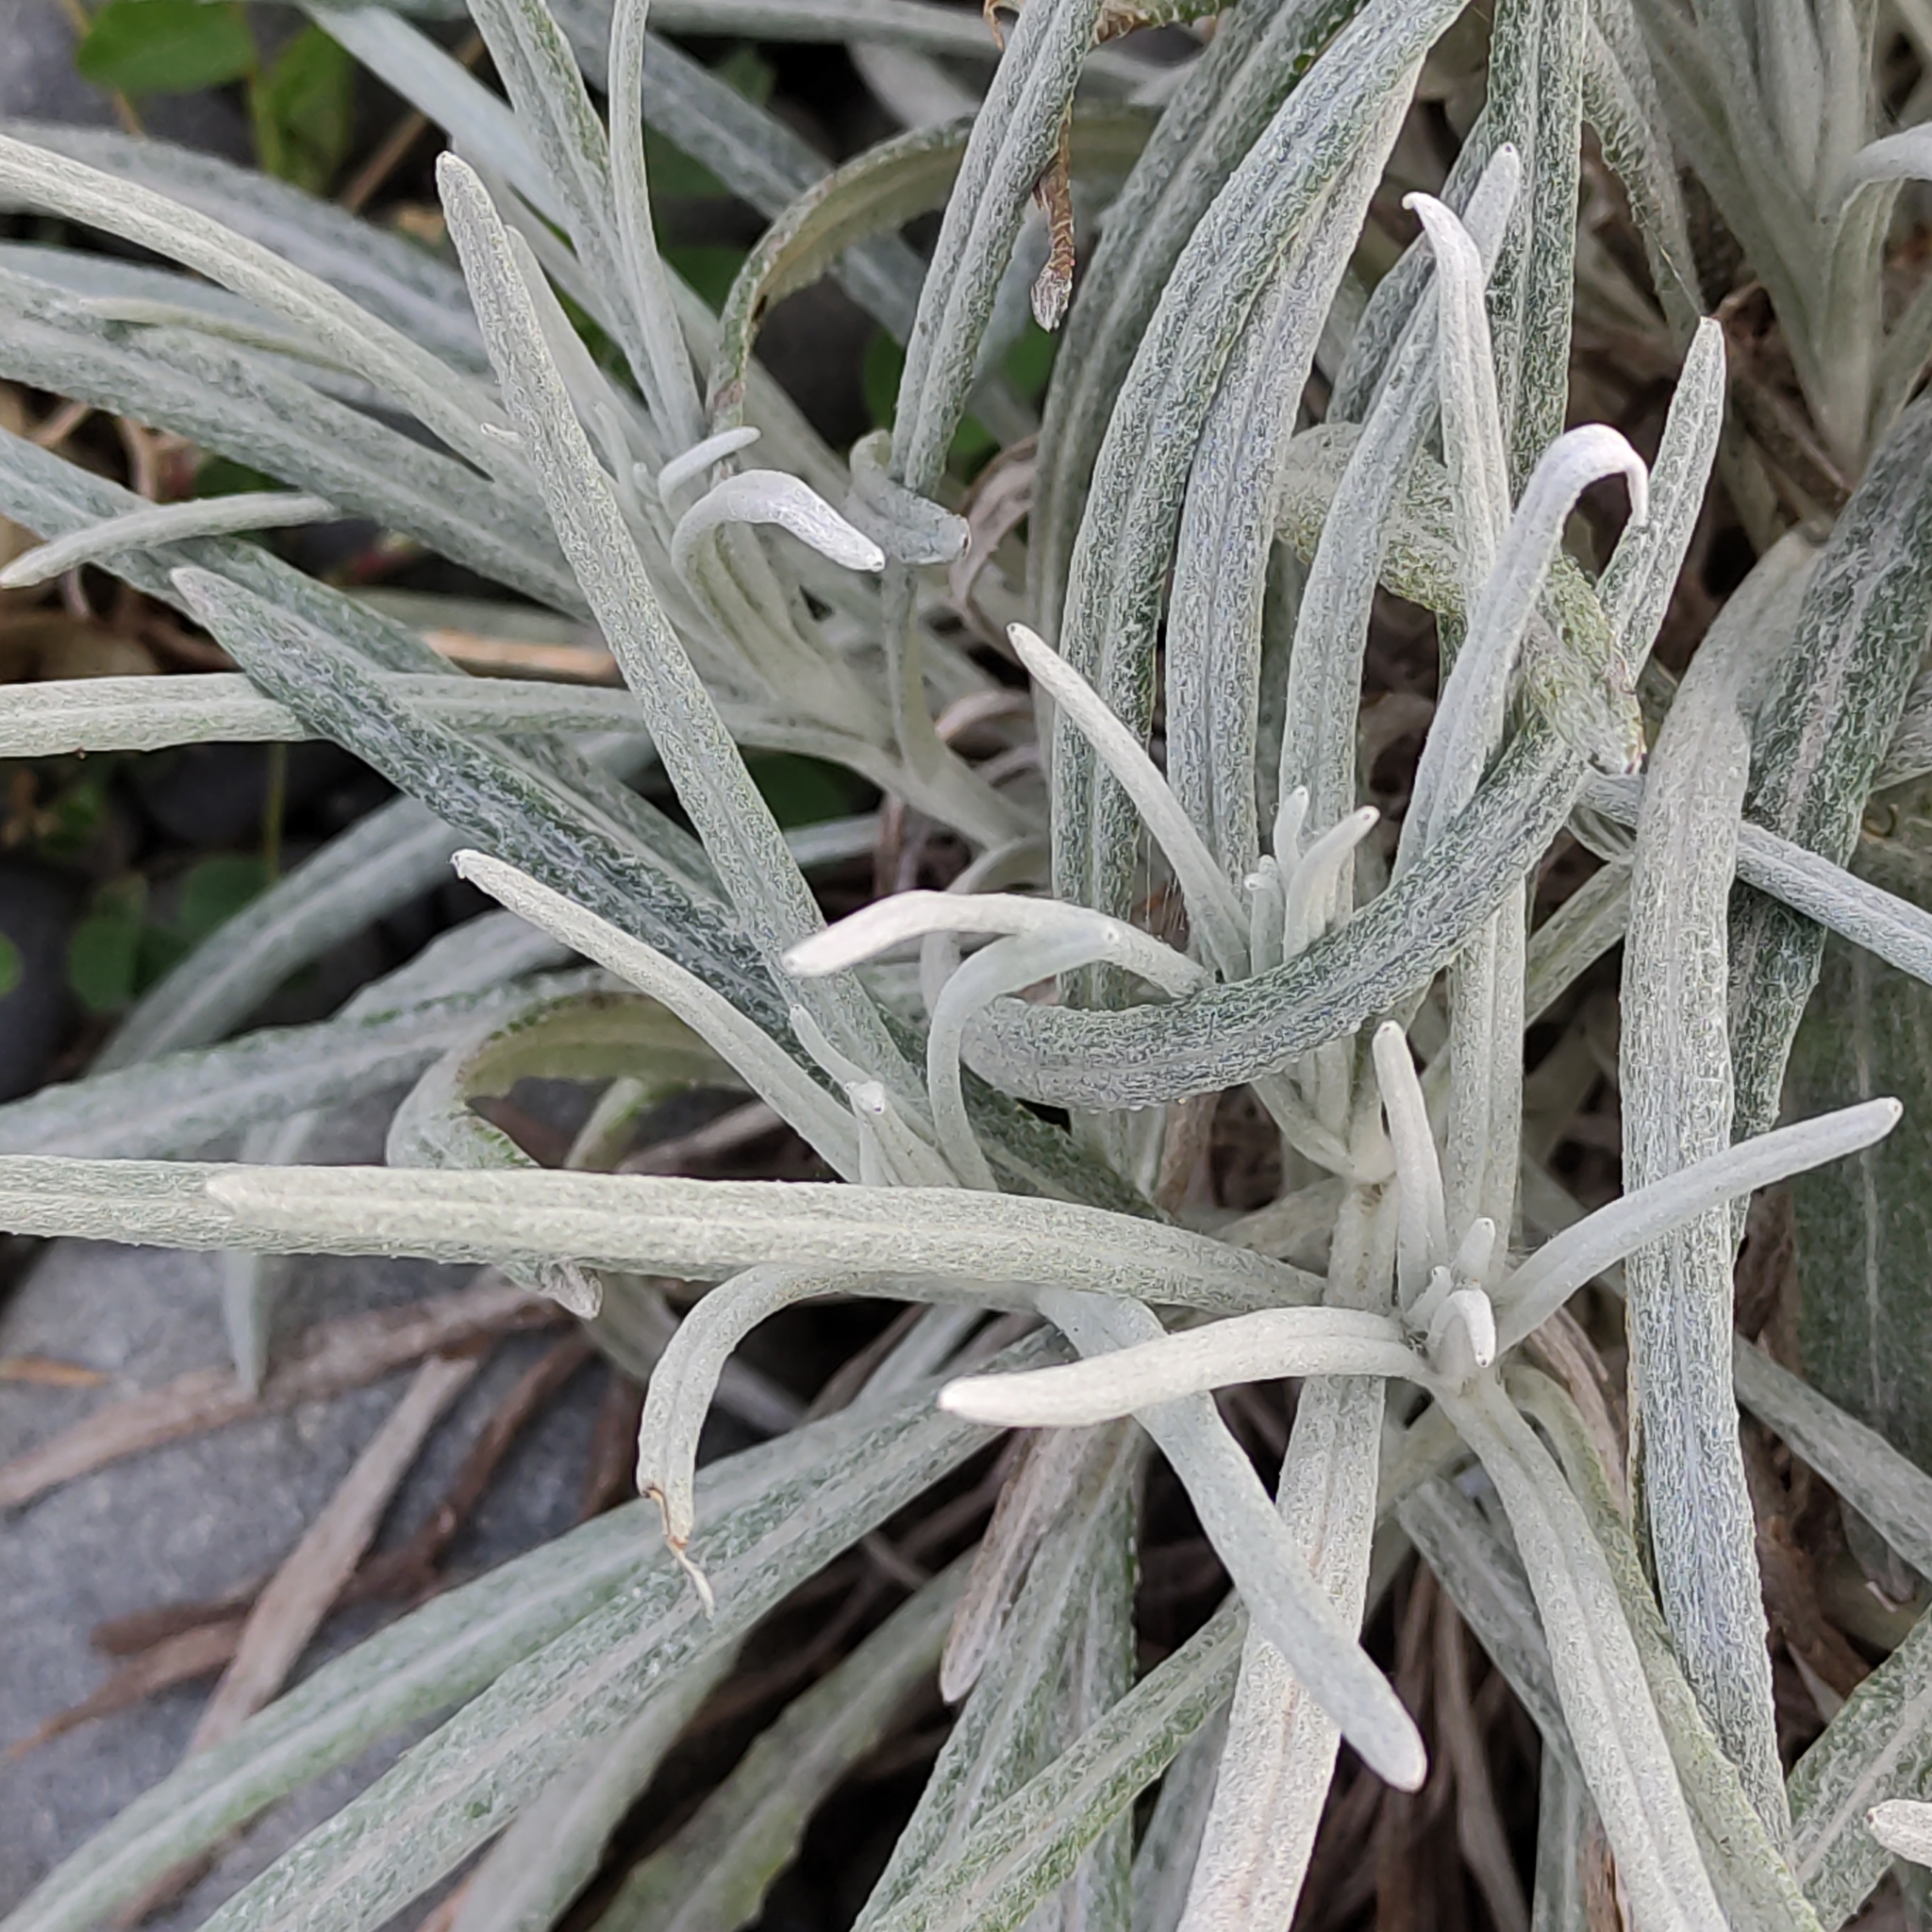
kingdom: Plantae
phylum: Tracheophyta
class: Magnoliopsida
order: Asterales
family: Asteraceae
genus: Senecio
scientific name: Senecio quadridentatus
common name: Cotton fireweed
